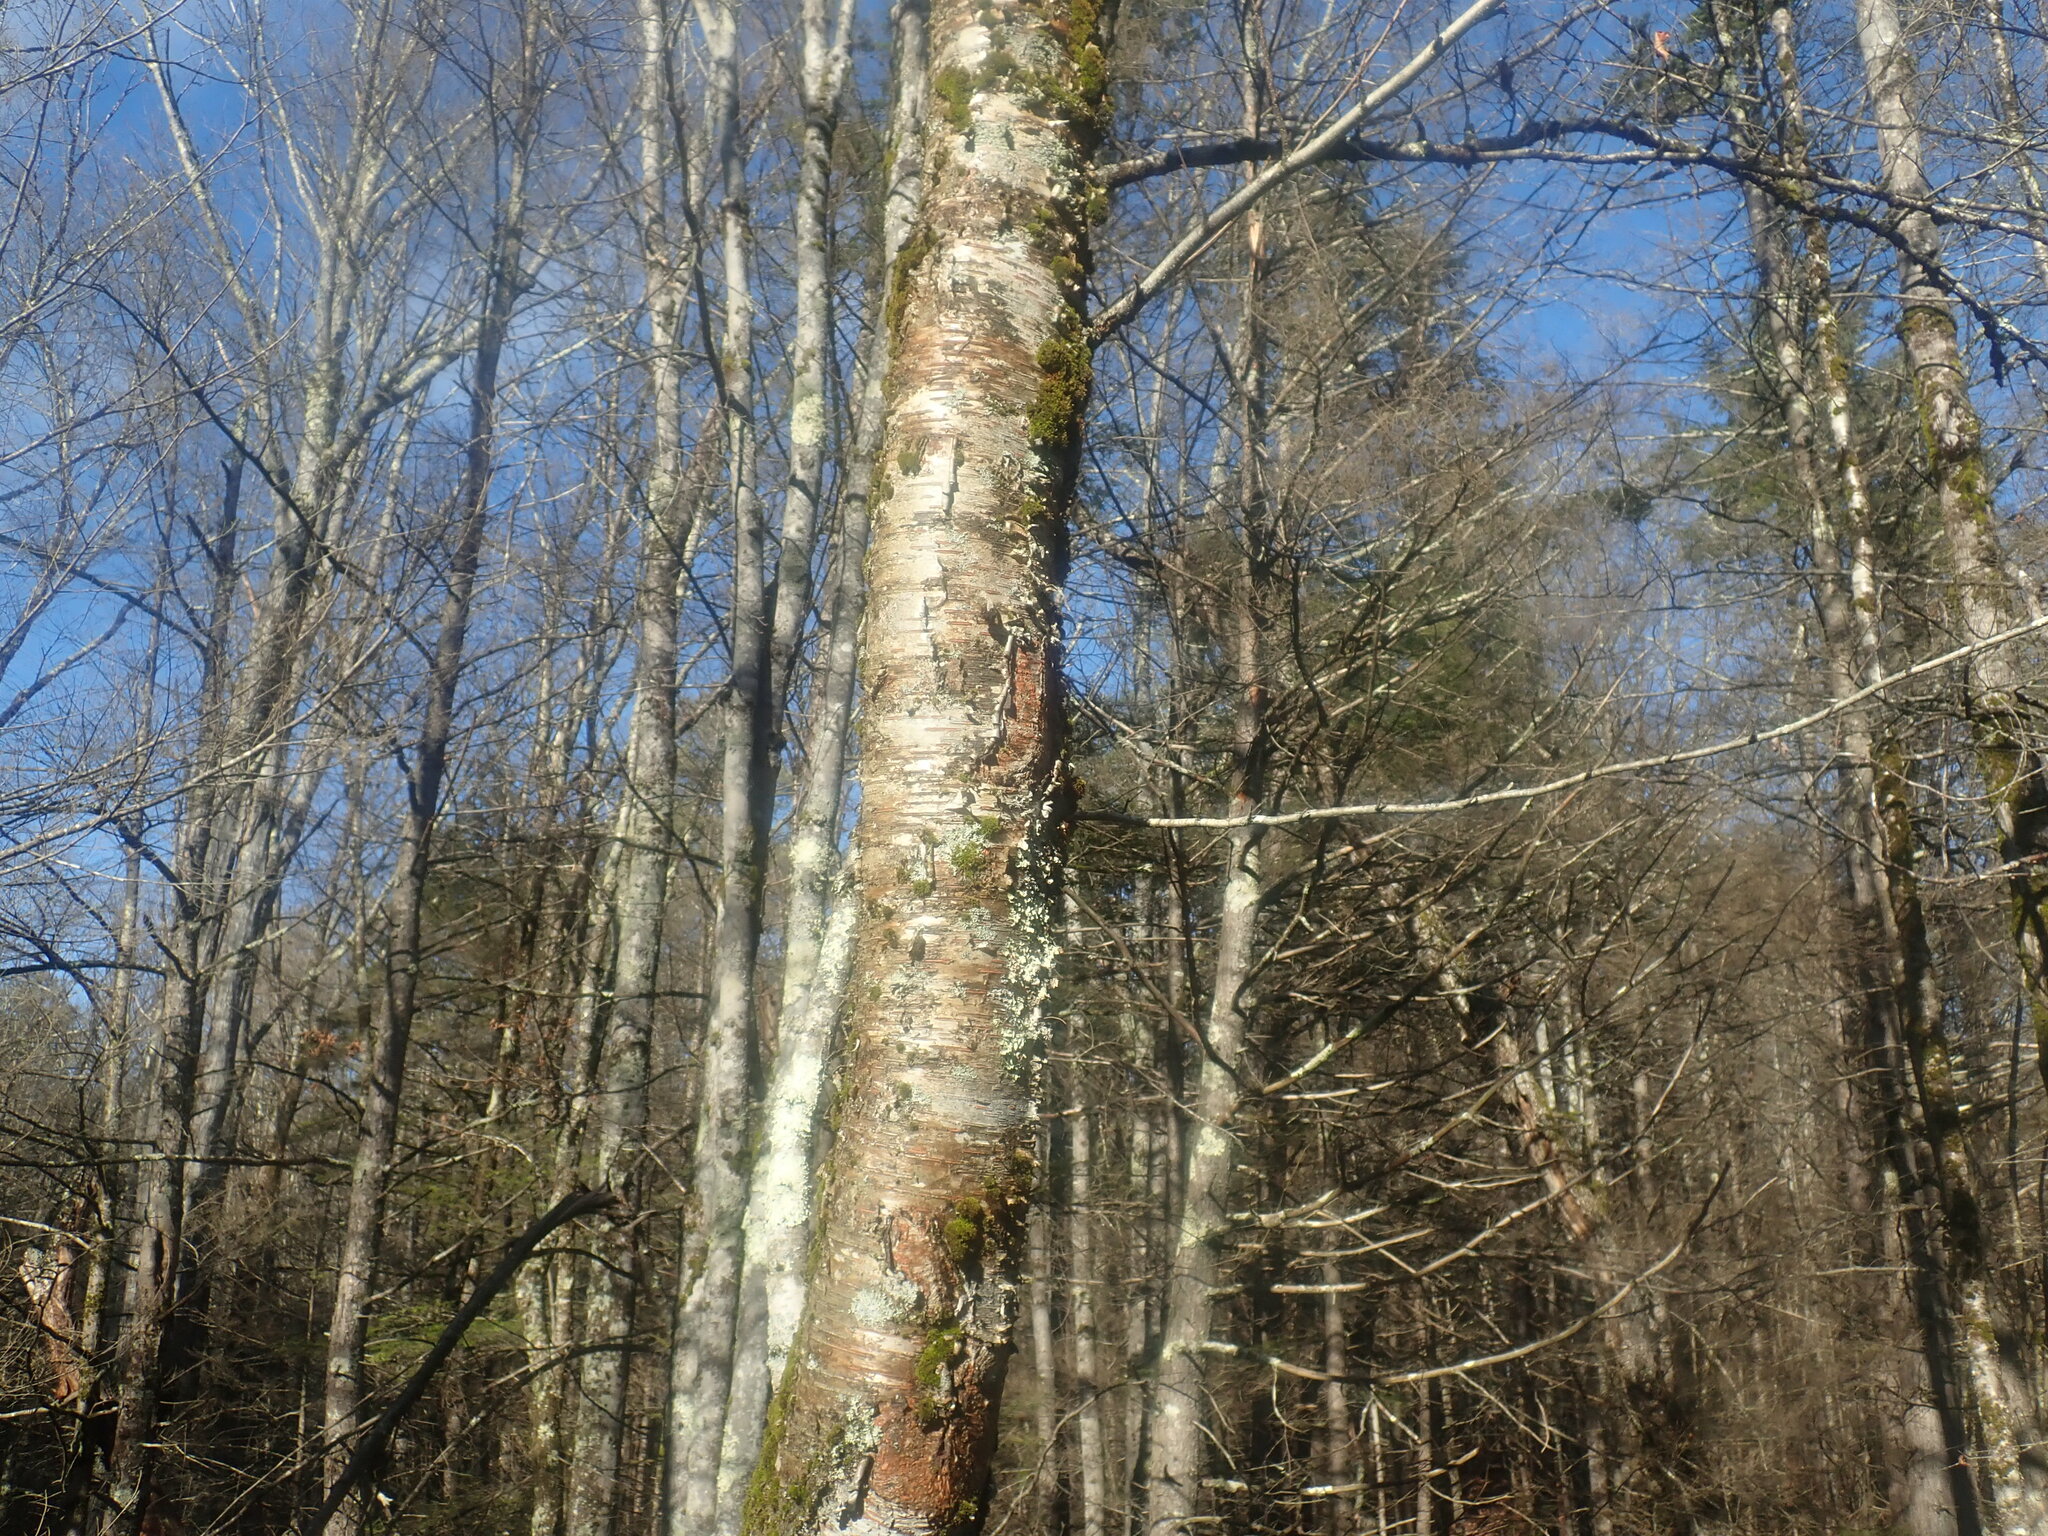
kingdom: Plantae
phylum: Tracheophyta
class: Magnoliopsida
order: Fagales
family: Betulaceae
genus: Betula
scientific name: Betula alleghaniensis
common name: Yellow birch
